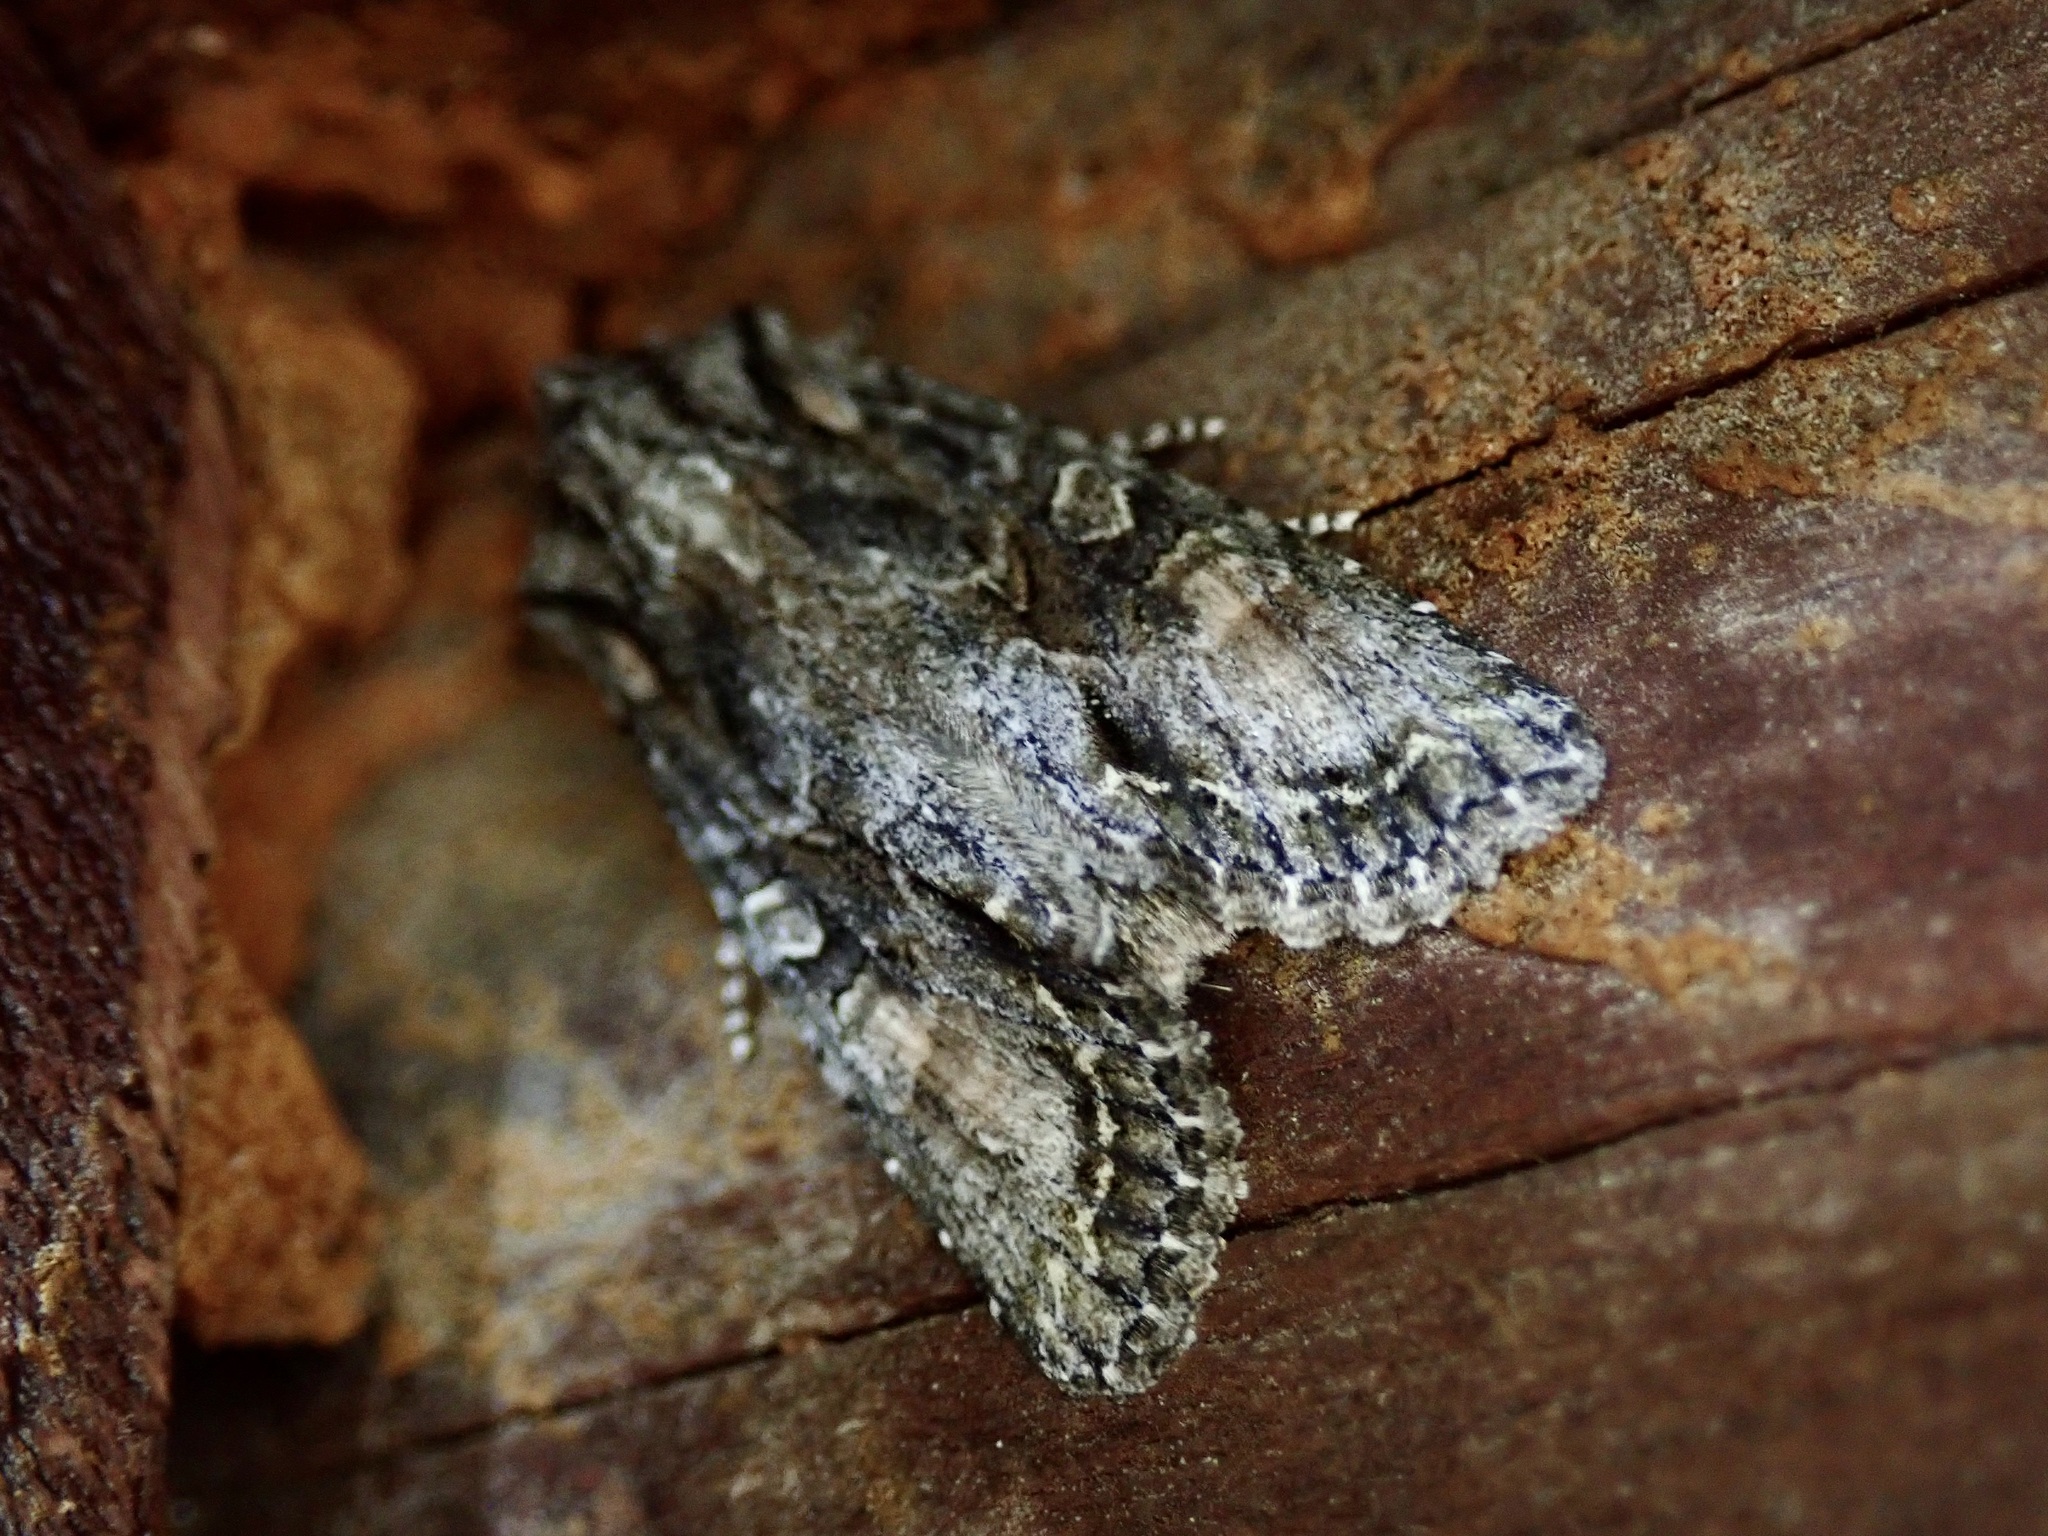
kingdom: Animalia
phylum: Arthropoda
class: Insecta
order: Lepidoptera
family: Noctuidae
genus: Ichneutica
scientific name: Ichneutica mutans
